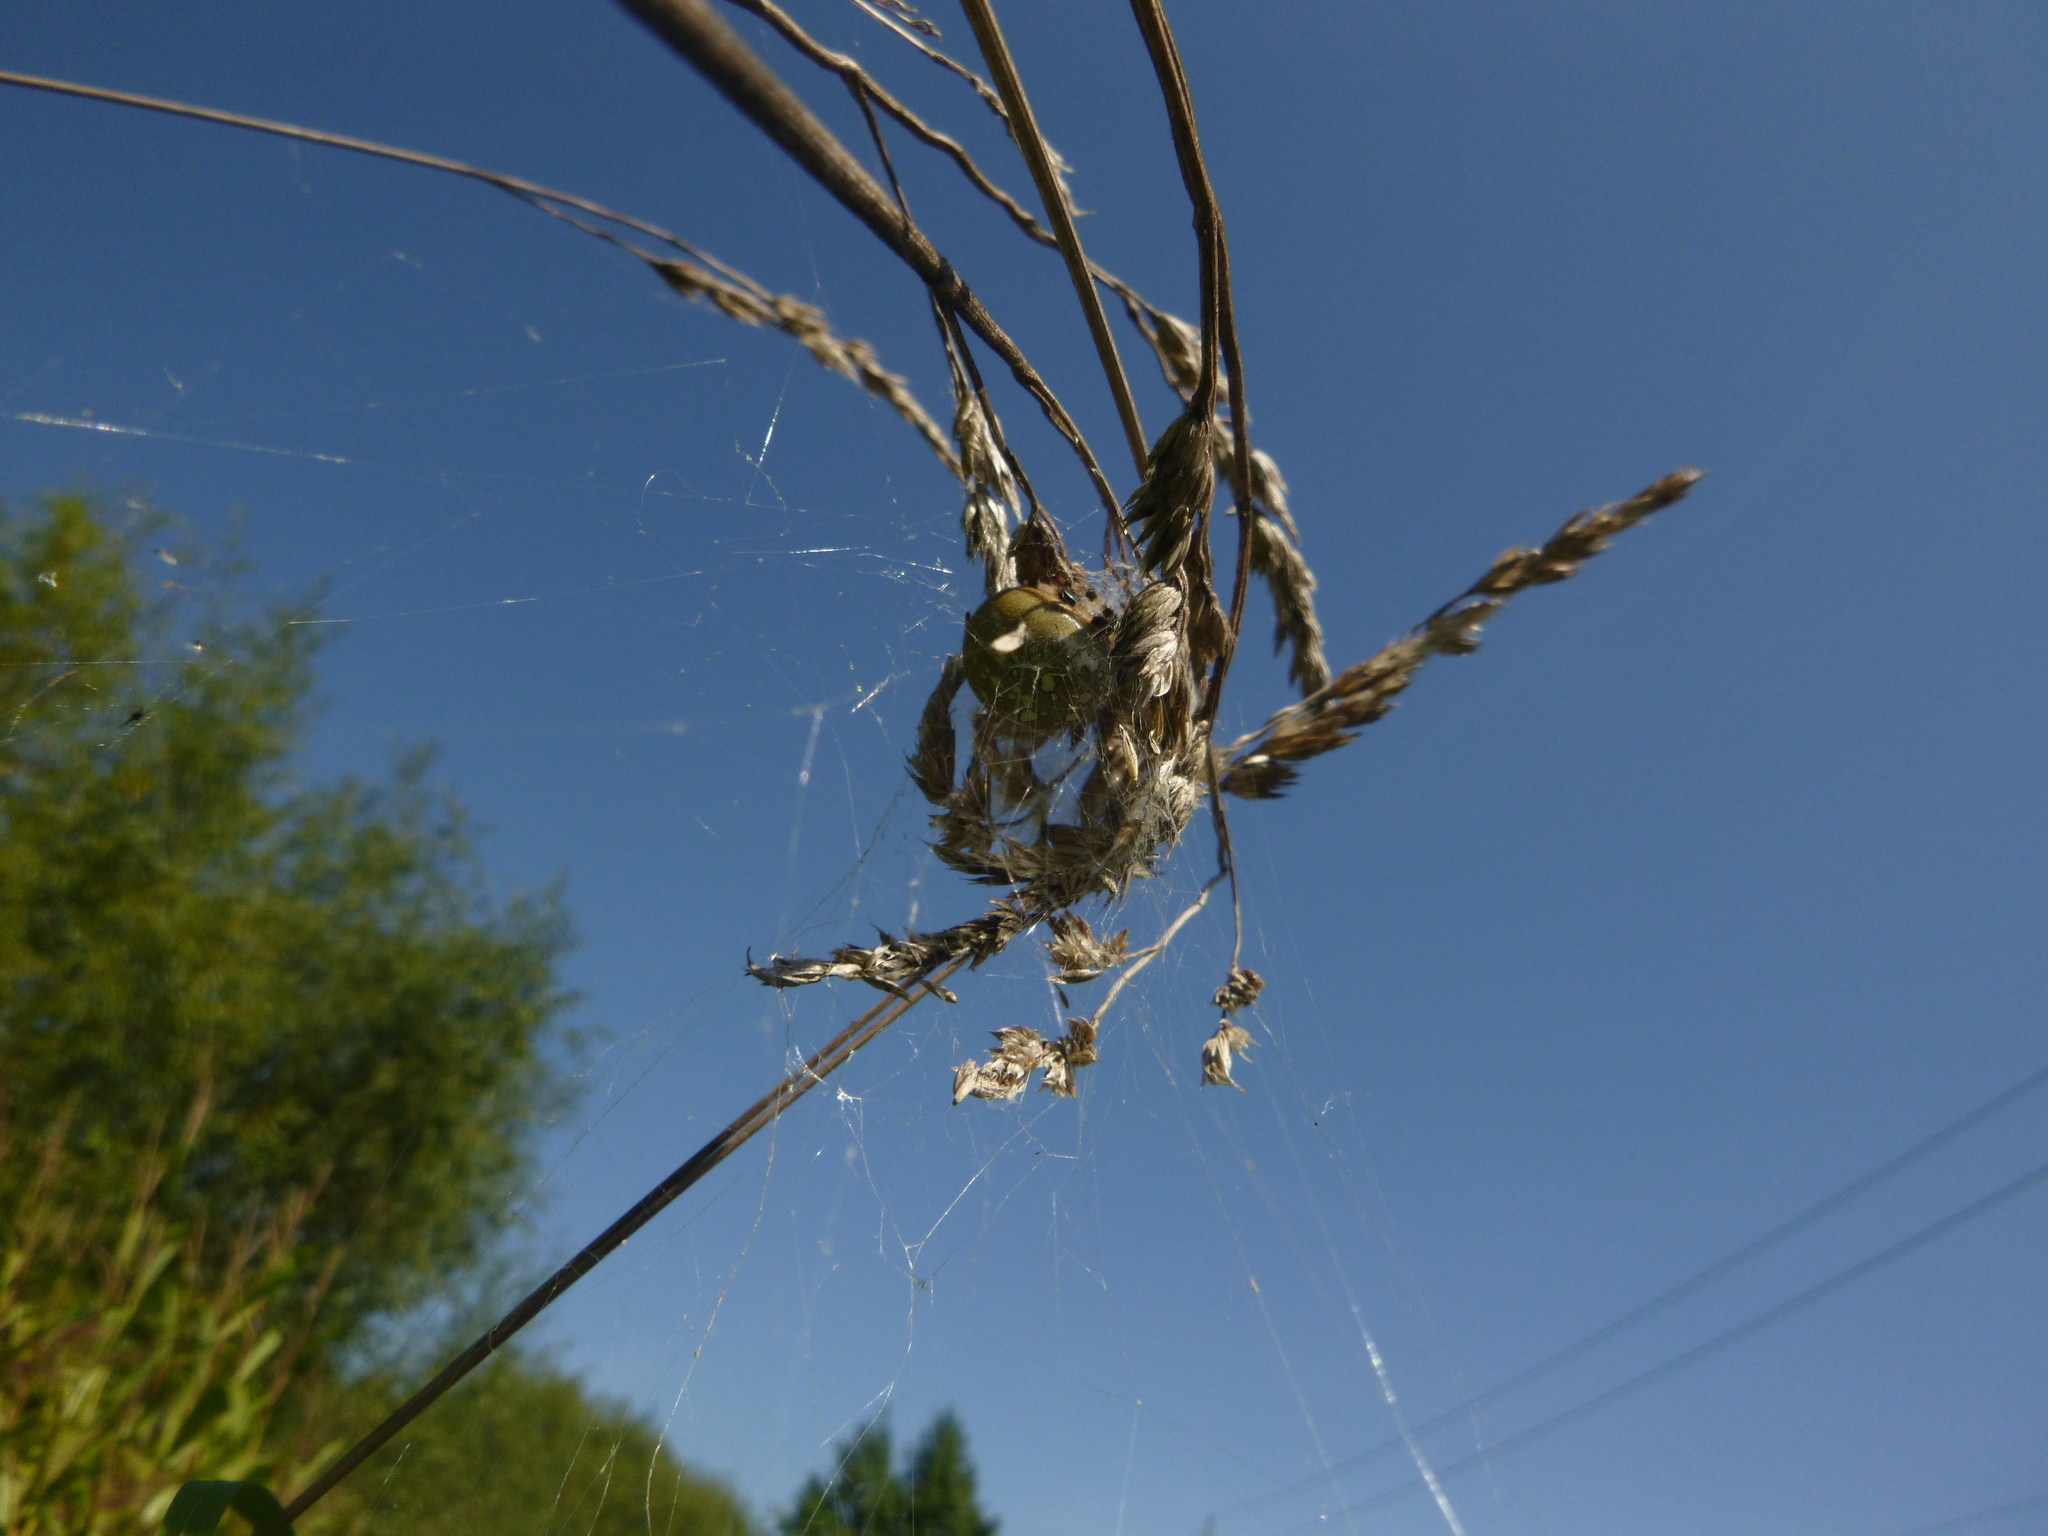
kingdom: Animalia
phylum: Arthropoda
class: Arachnida
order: Araneae
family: Araneidae
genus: Araneus
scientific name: Araneus quadratus
